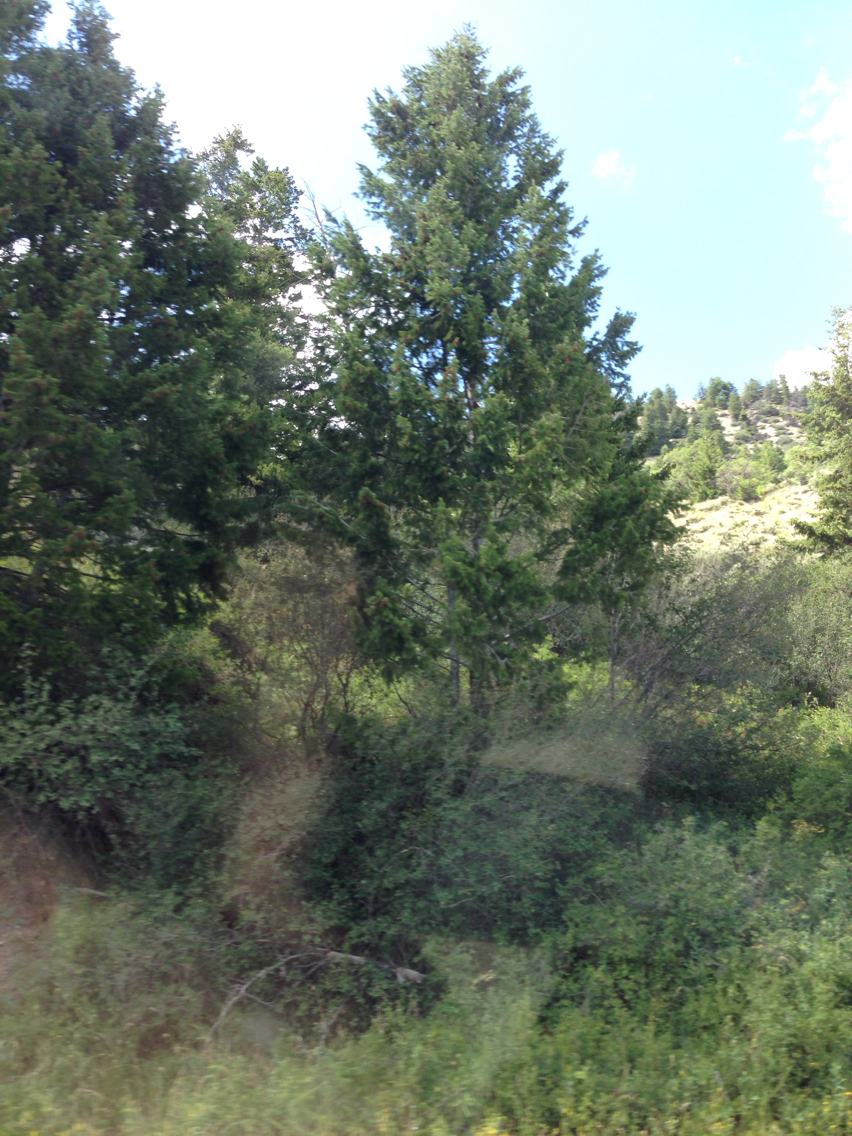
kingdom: Plantae
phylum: Tracheophyta
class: Pinopsida
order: Pinales
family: Pinaceae
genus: Pseudotsuga
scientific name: Pseudotsuga menziesii
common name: Douglas fir
